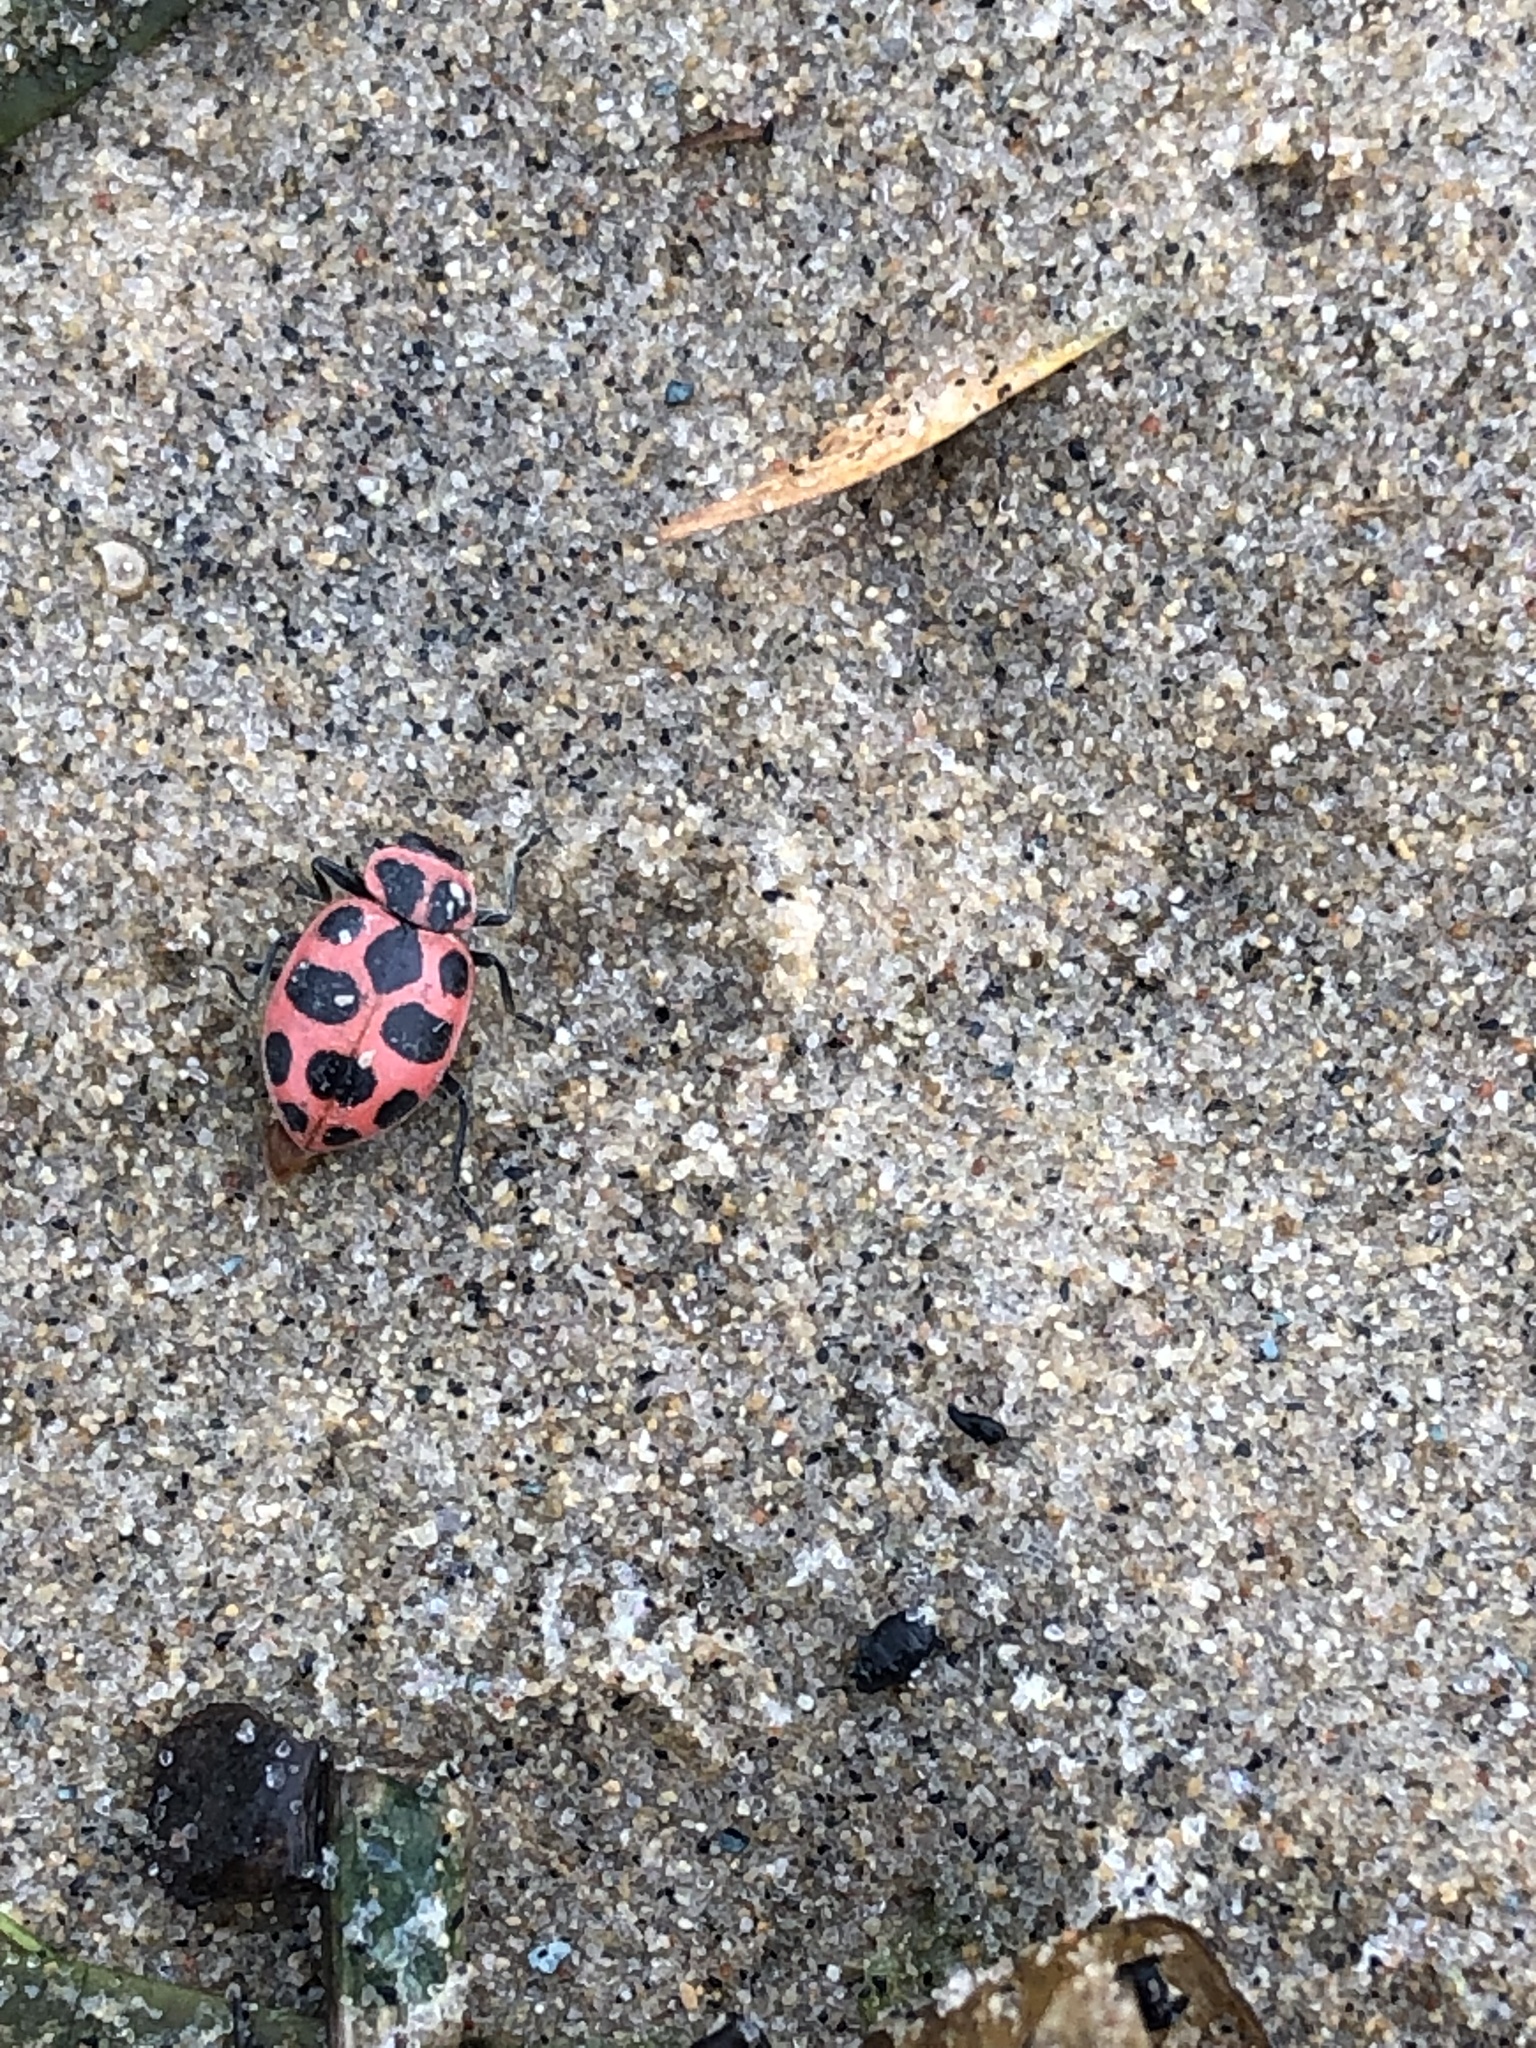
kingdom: Animalia
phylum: Arthropoda
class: Insecta
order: Coleoptera
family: Coccinellidae
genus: Coleomegilla
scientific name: Coleomegilla maculata
